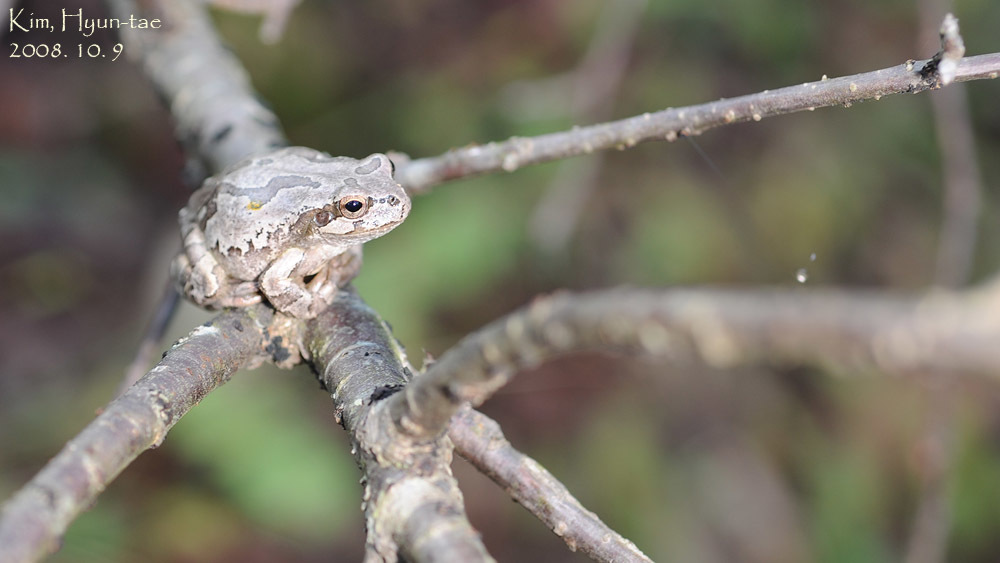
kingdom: Animalia
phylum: Chordata
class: Amphibia
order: Anura
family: Hylidae
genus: Dryophytes
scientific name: Dryophytes japonicus
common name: Japanese treefrog
